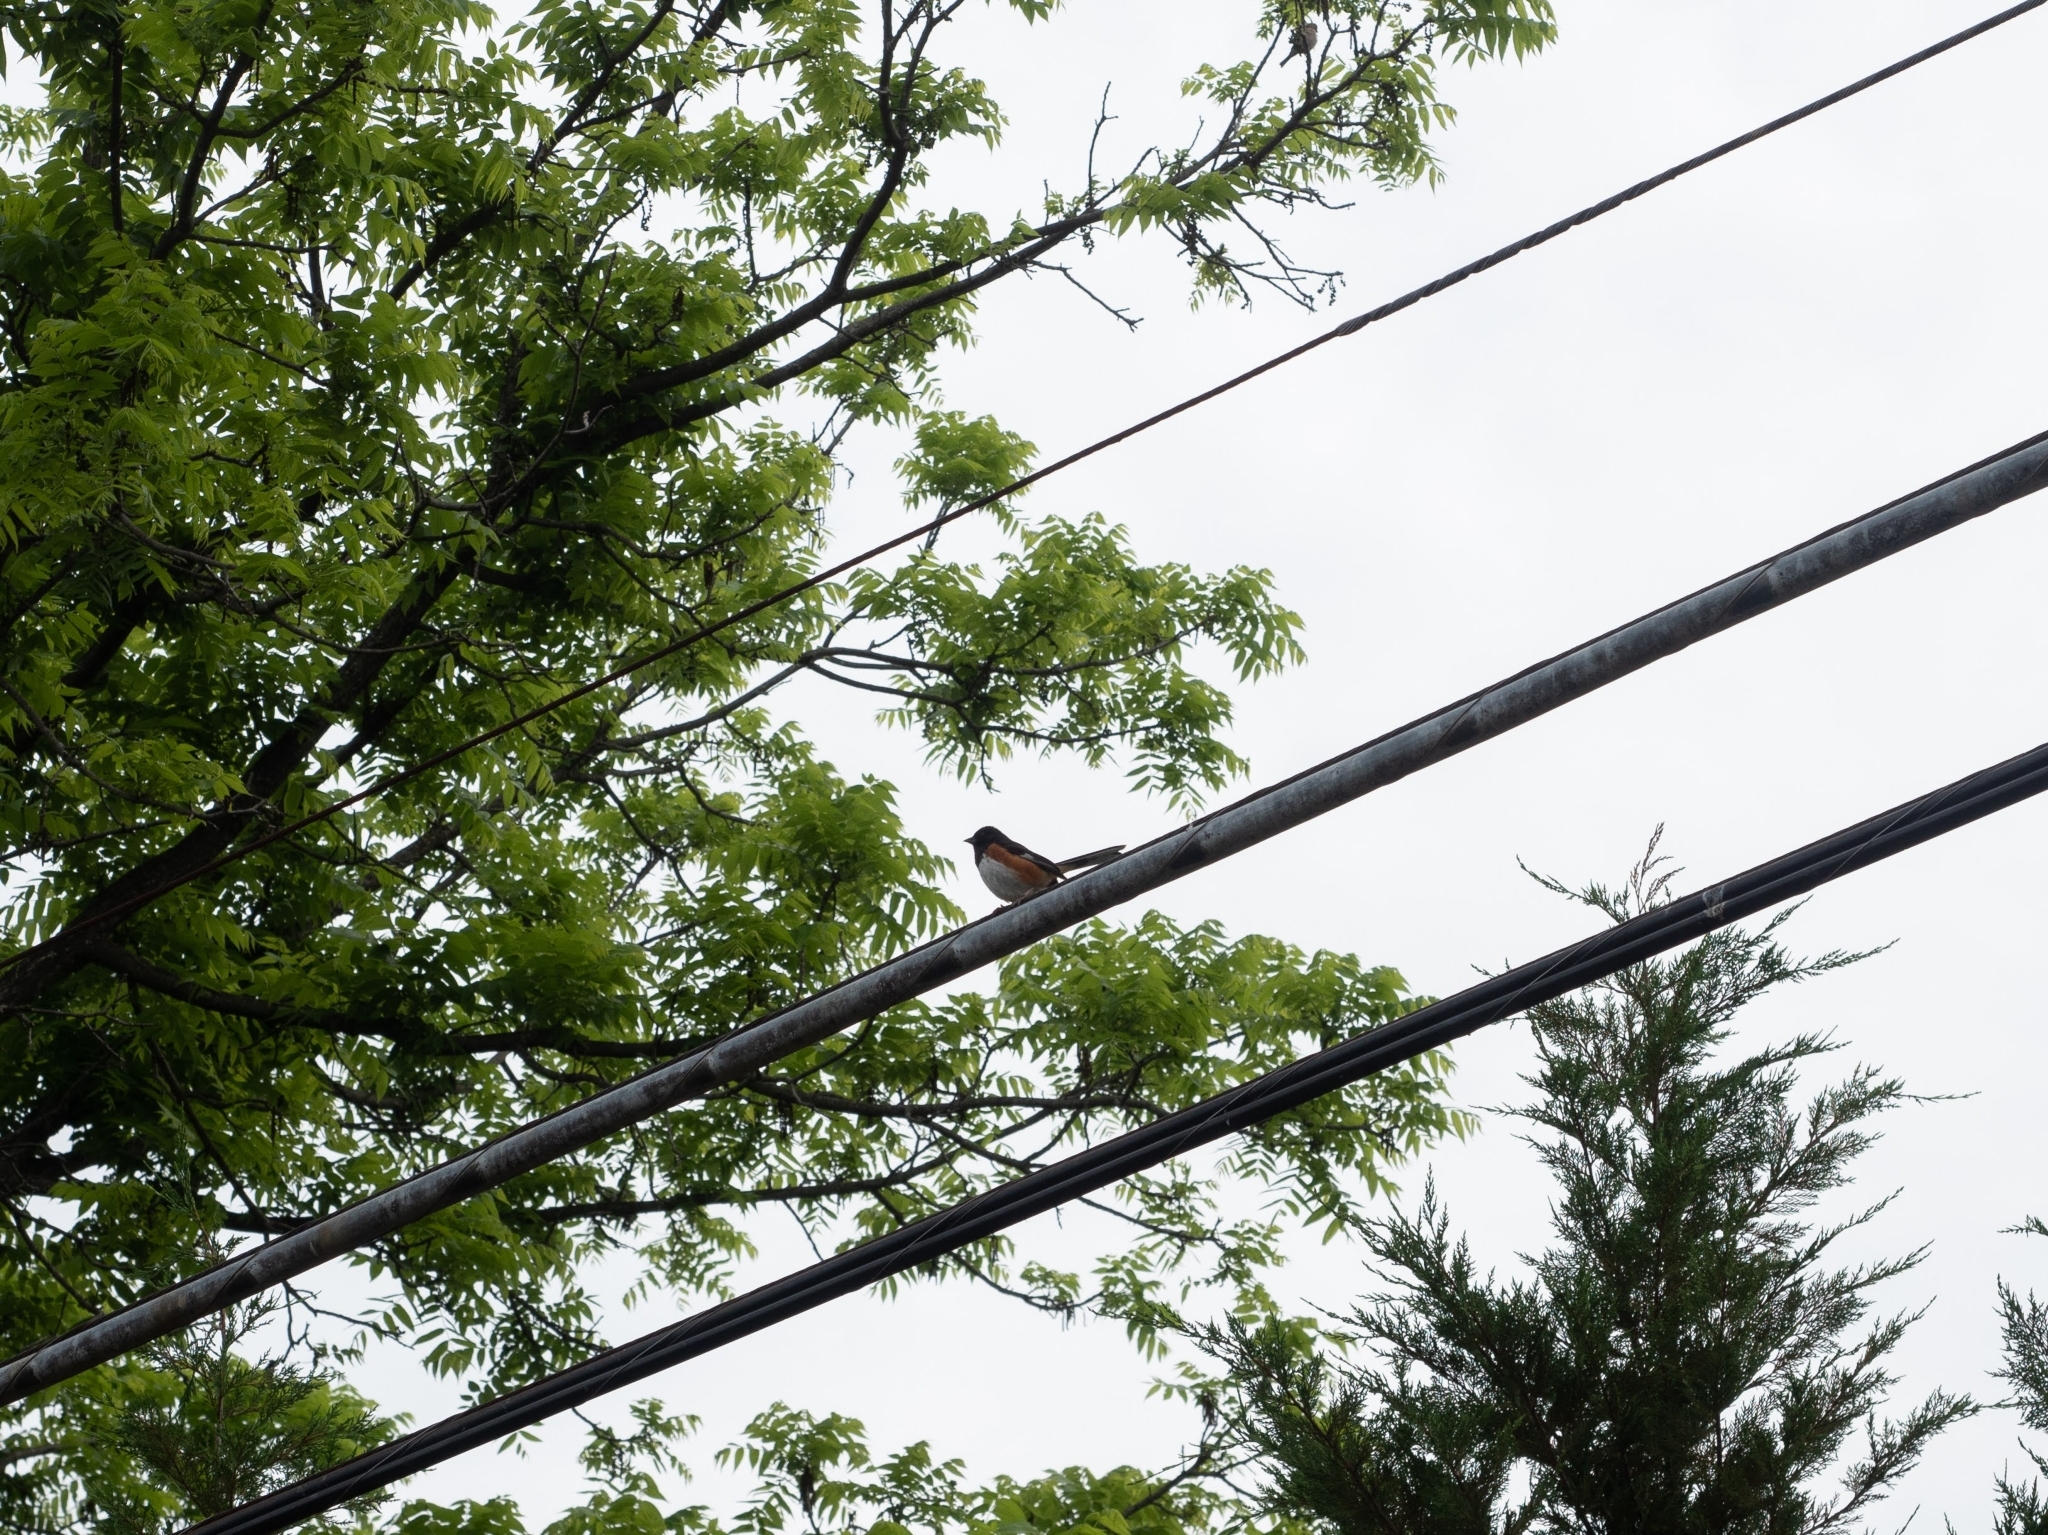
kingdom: Animalia
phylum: Chordata
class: Aves
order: Passeriformes
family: Passerellidae
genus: Pipilo
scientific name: Pipilo erythrophthalmus
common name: Eastern towhee
